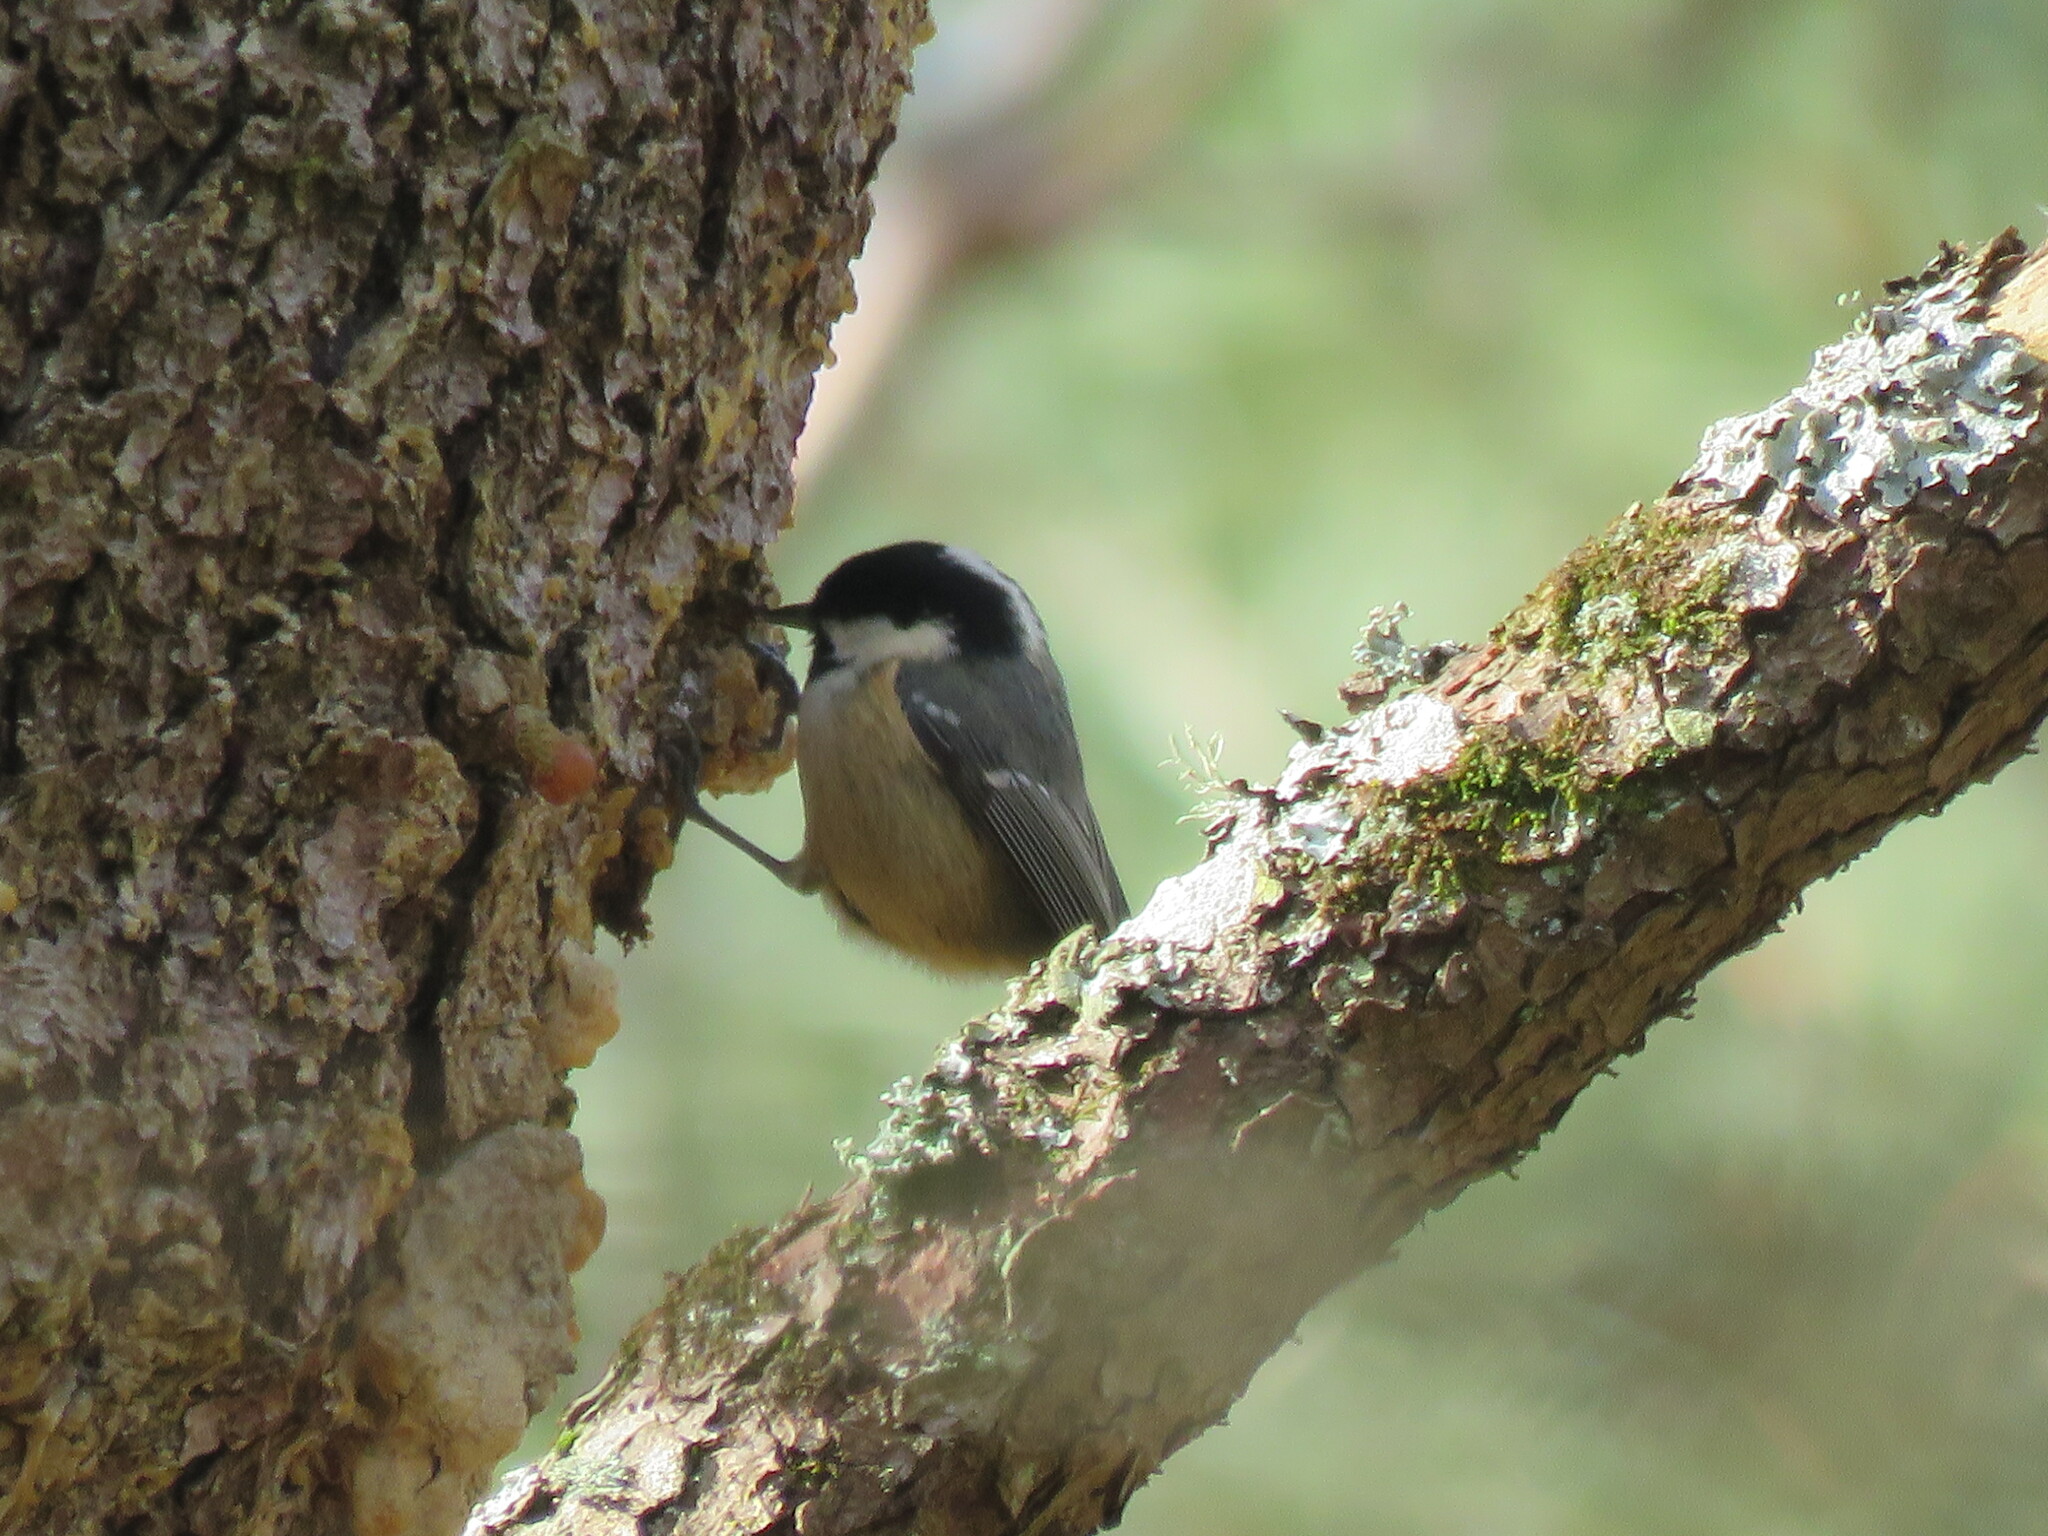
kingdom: Animalia
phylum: Chordata
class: Aves
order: Passeriformes
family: Paridae
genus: Periparus
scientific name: Periparus ater
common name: Coal tit
